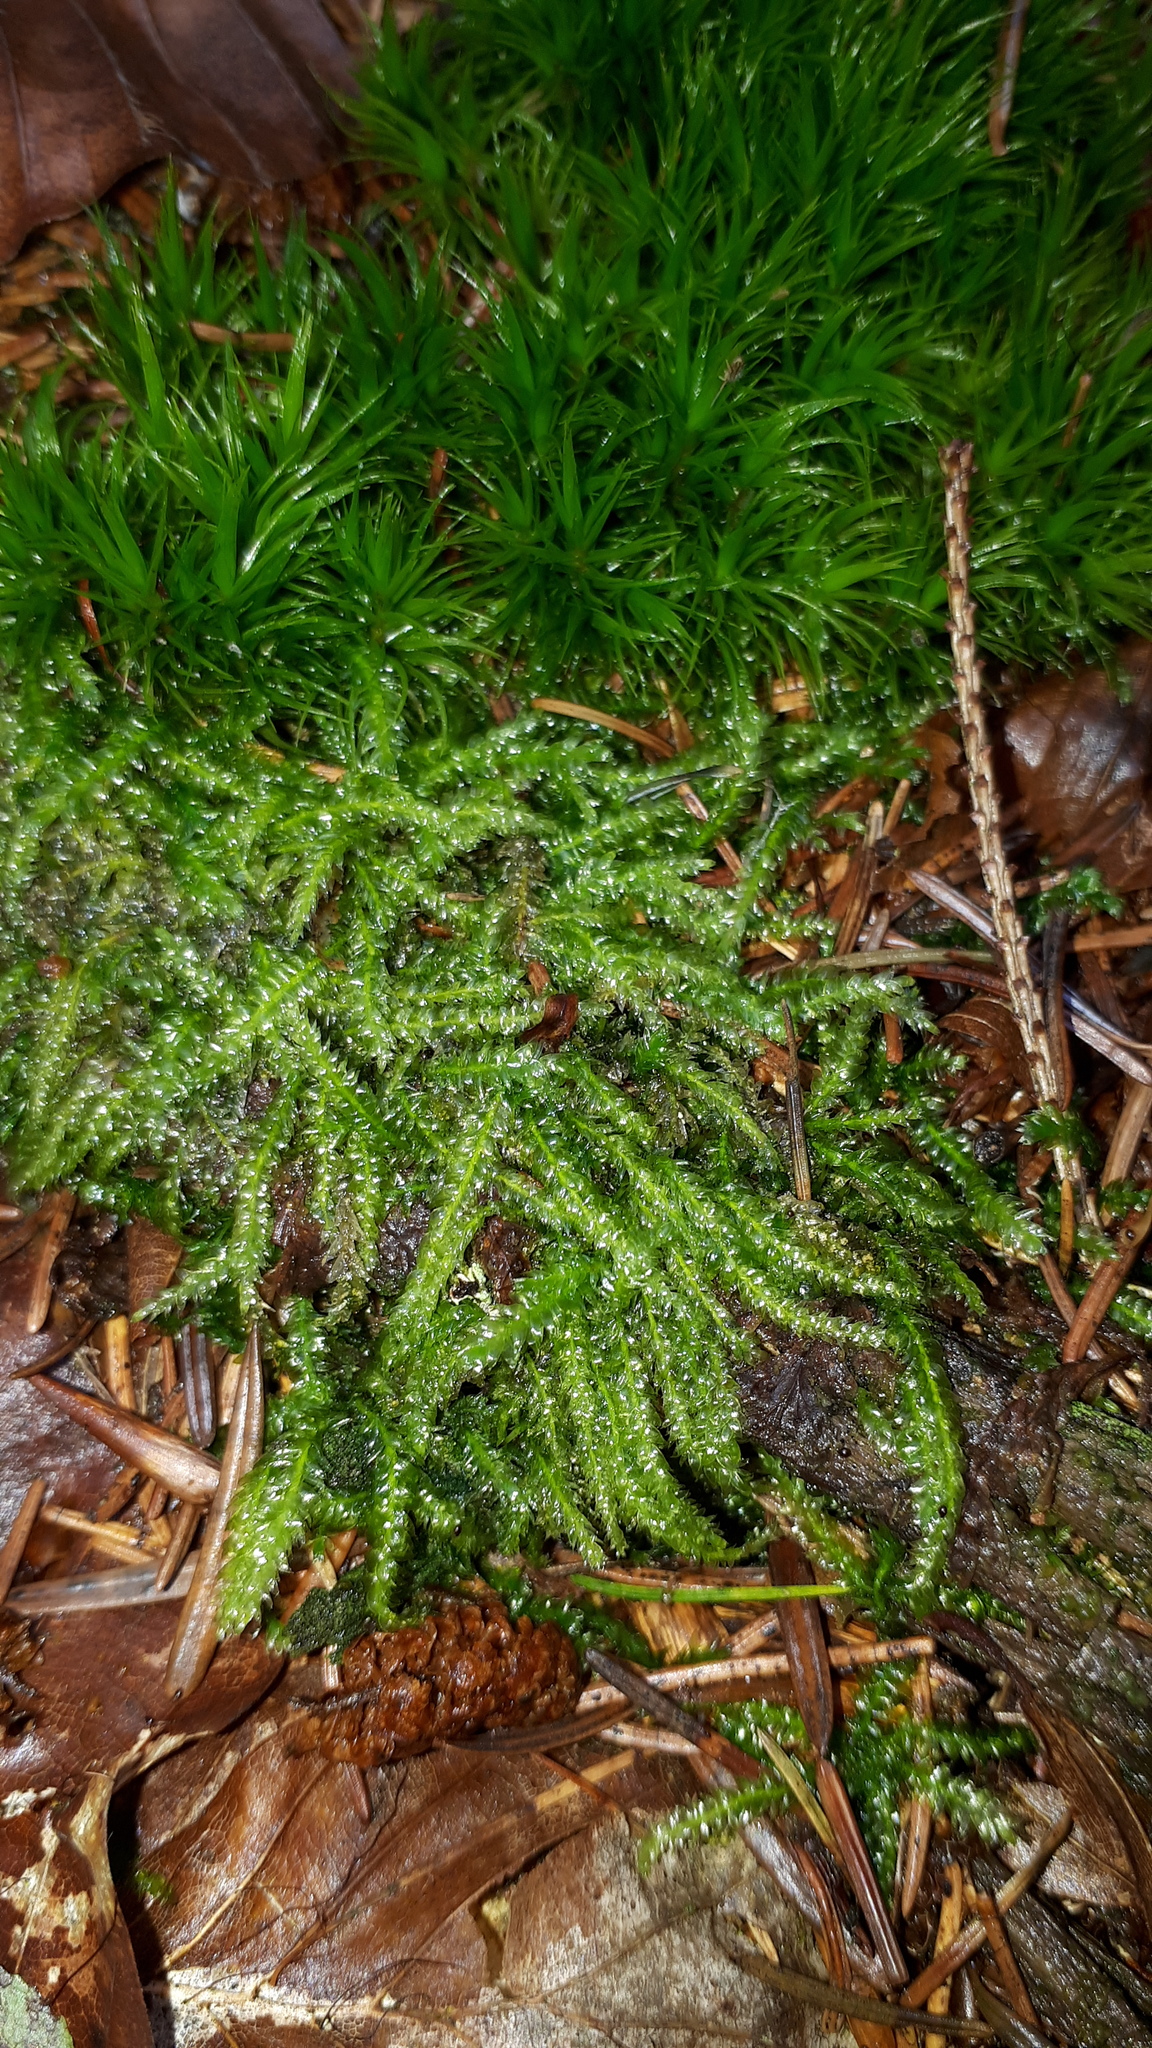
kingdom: Plantae
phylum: Bryophyta
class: Bryopsida
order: Hypnales
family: Plagiotheciaceae
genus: Plagiothecium
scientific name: Plagiothecium undulatum
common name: Waved silk-moss
